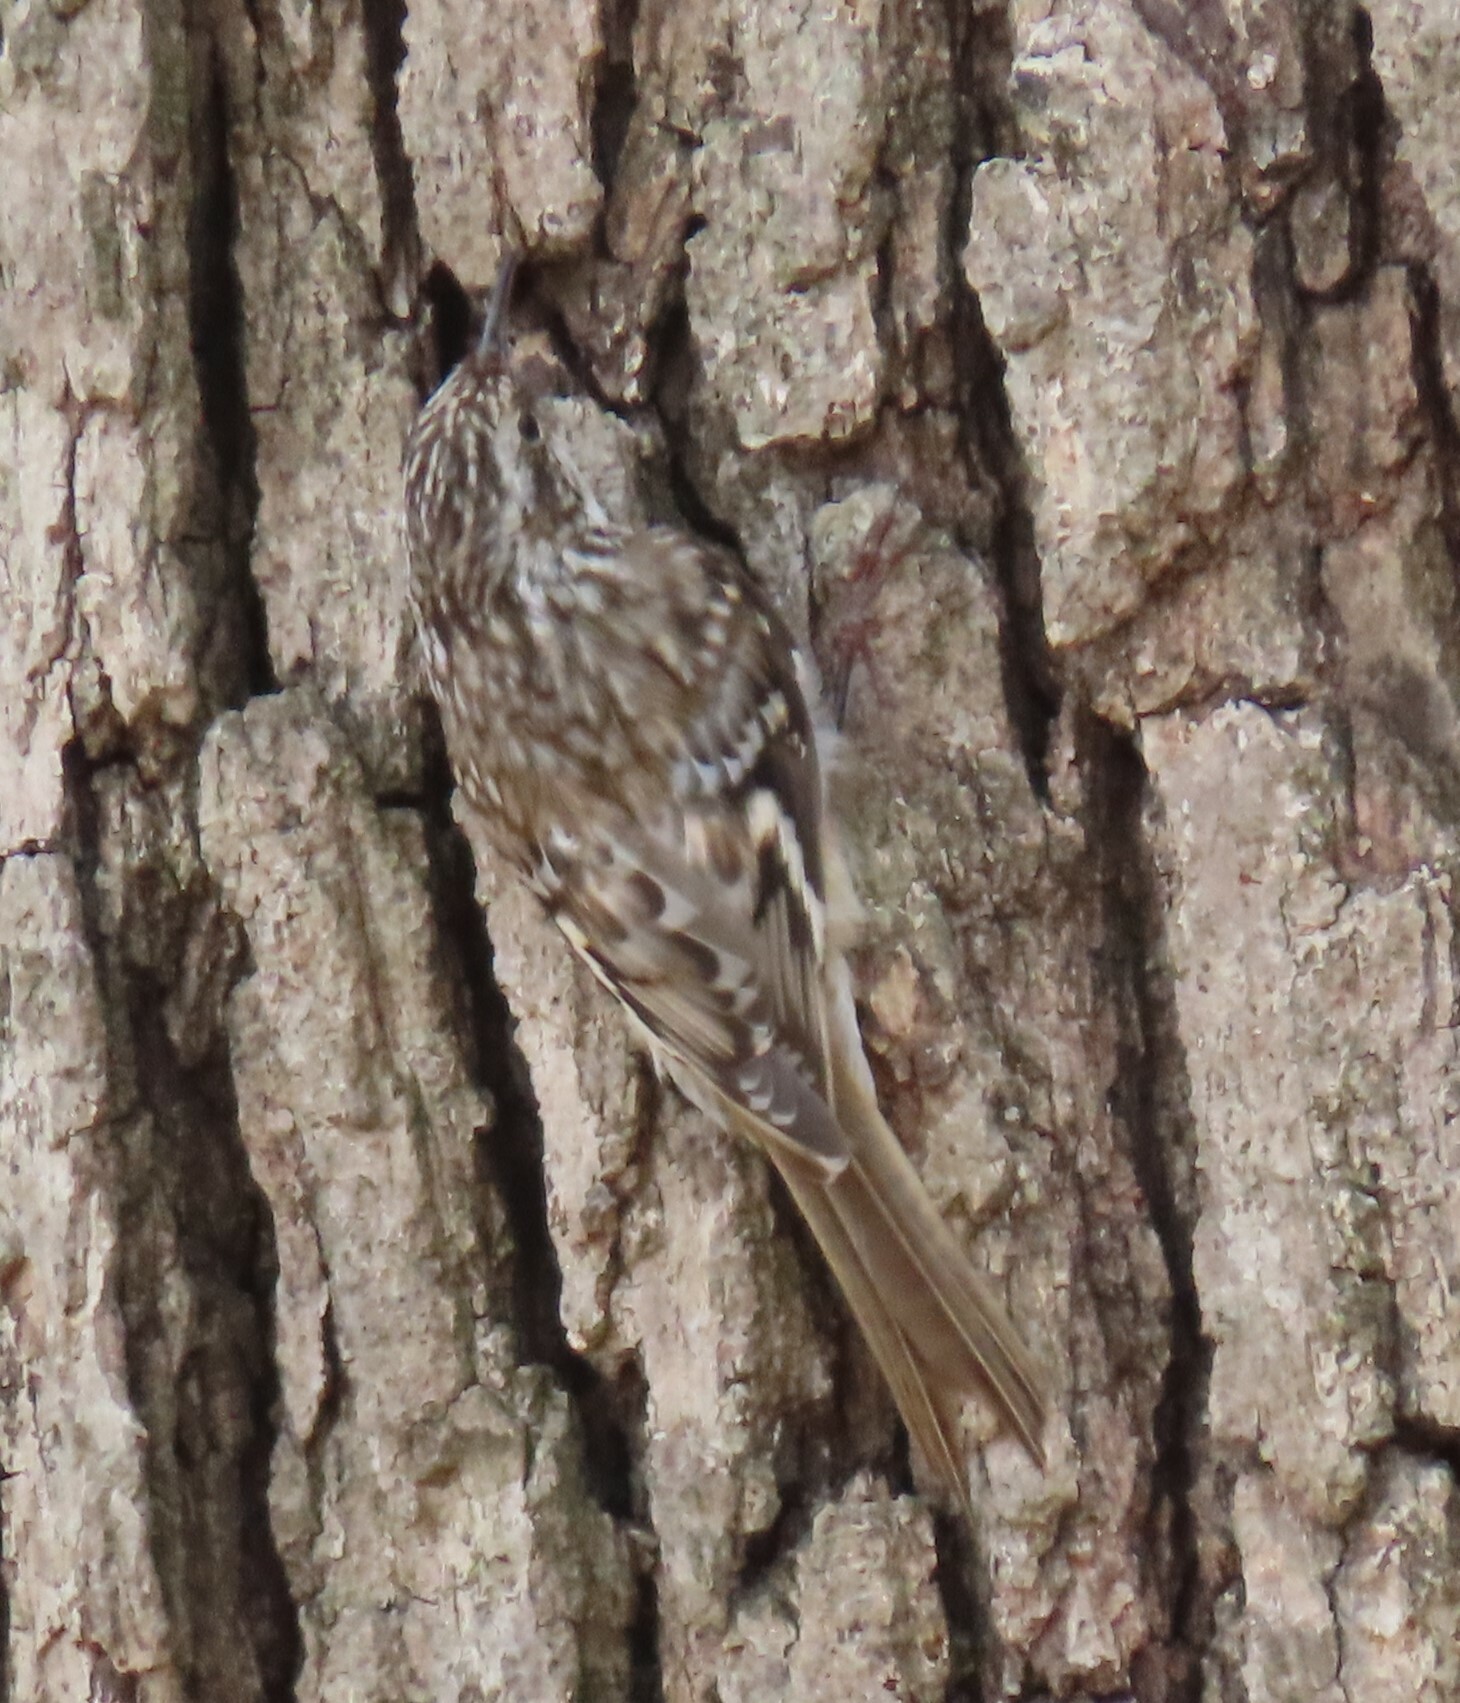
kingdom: Animalia
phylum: Chordata
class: Aves
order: Passeriformes
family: Certhiidae
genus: Certhia
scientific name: Certhia americana
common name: Brown creeper
